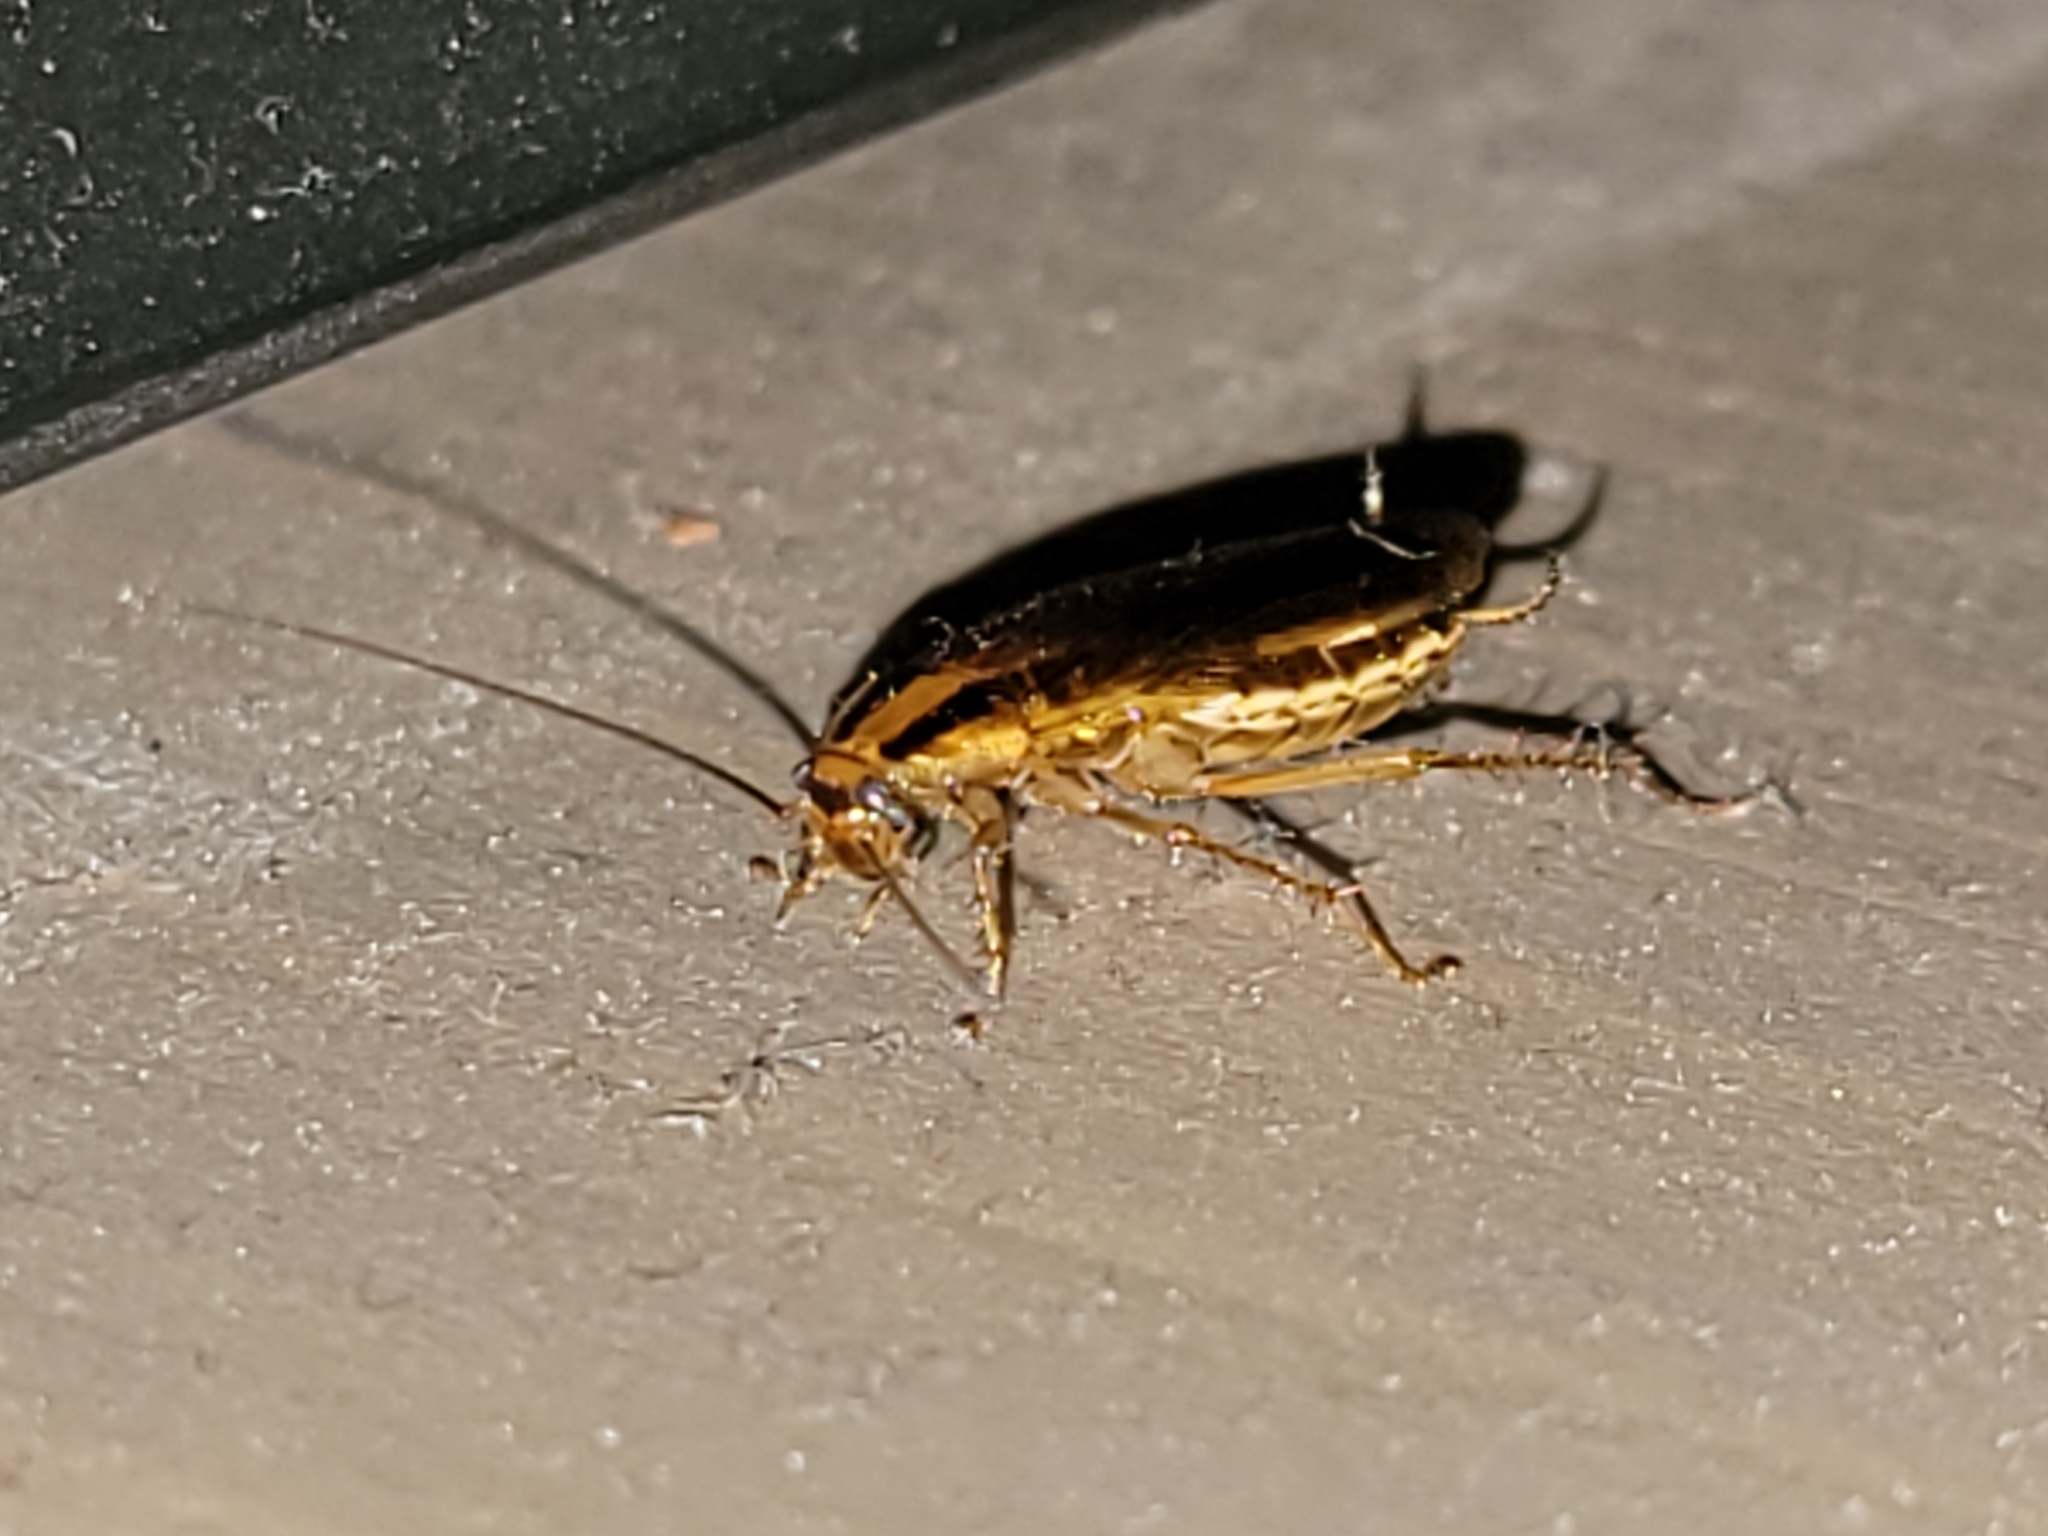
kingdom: Animalia
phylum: Arthropoda
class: Insecta
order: Blattodea
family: Ectobiidae
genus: Blattella
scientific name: Blattella germanica
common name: German cockroach
